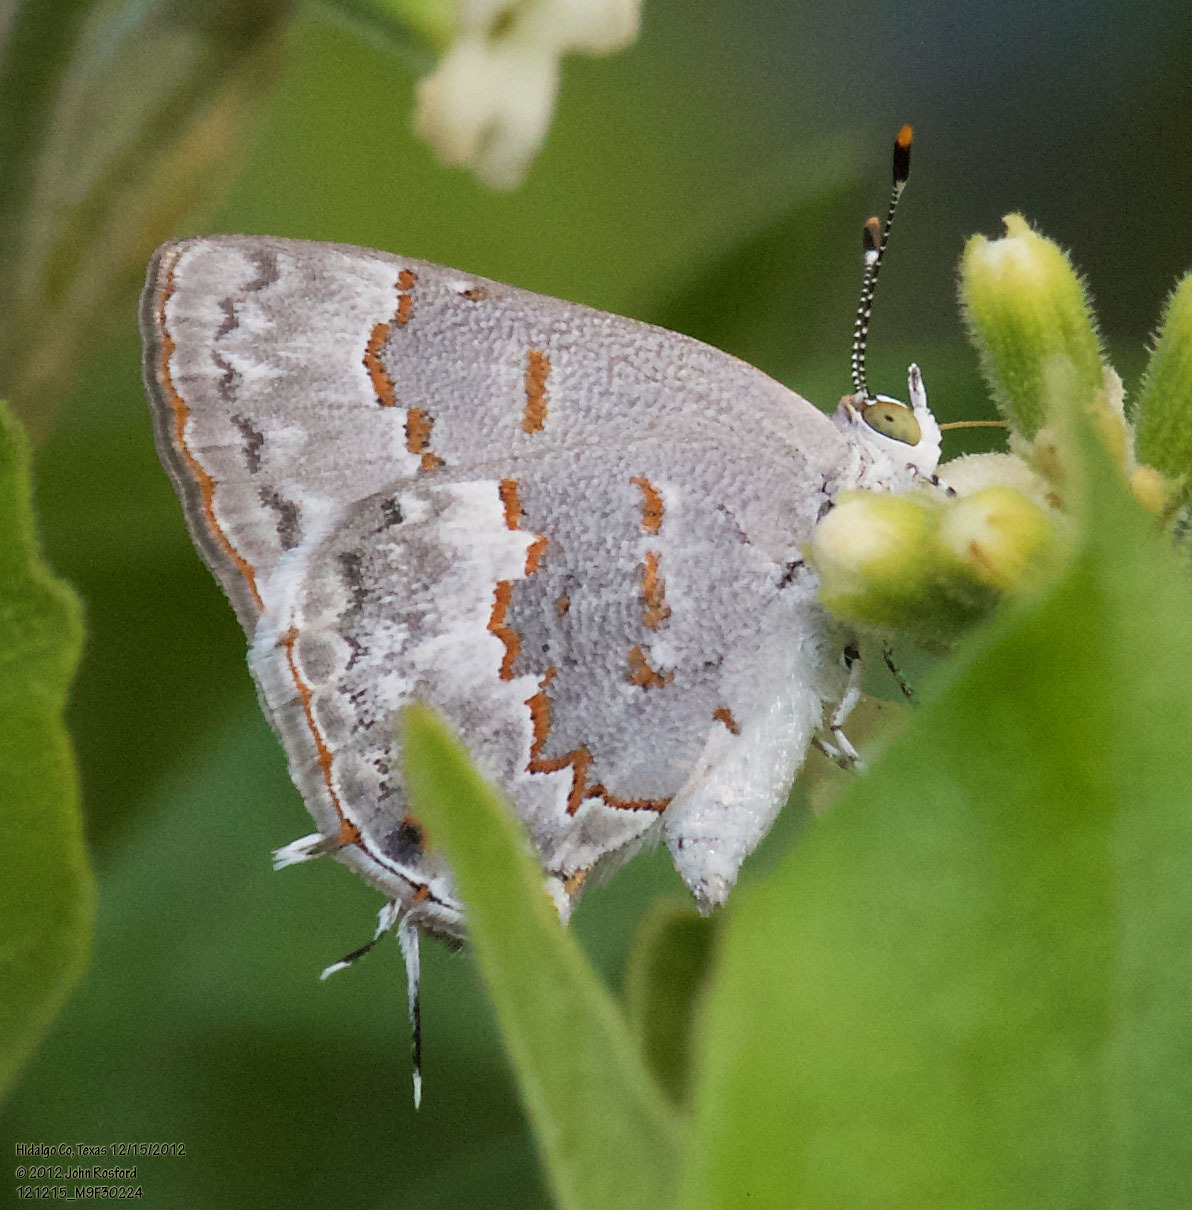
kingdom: Animalia
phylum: Arthropoda
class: Insecta
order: Lepidoptera
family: Lycaenidae
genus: Ministrymon
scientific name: Ministrymon clytie
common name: Clytie ministreak
